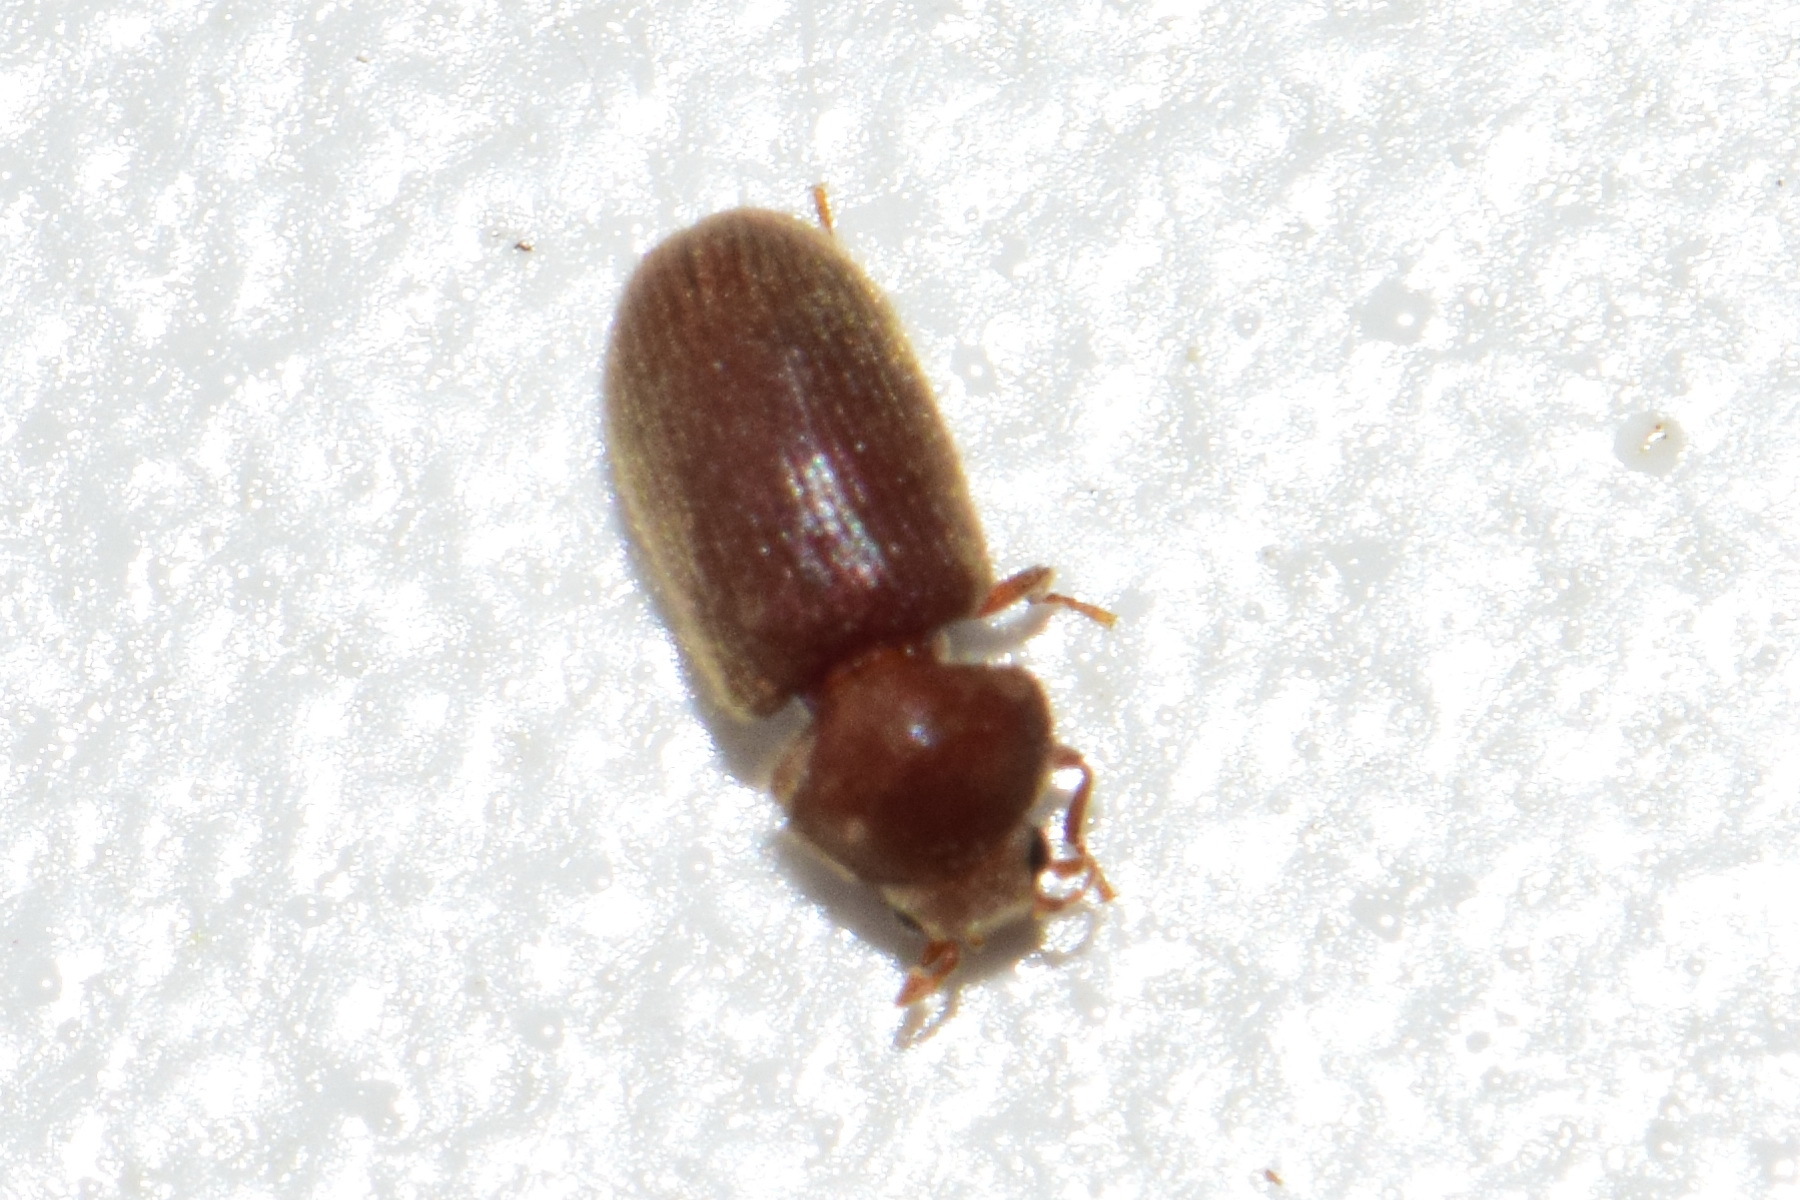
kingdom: Animalia
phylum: Arthropoda
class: Insecta
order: Coleoptera
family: Anobiidae
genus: Stegobium
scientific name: Stegobium paniceum
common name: Drugstore beetle
